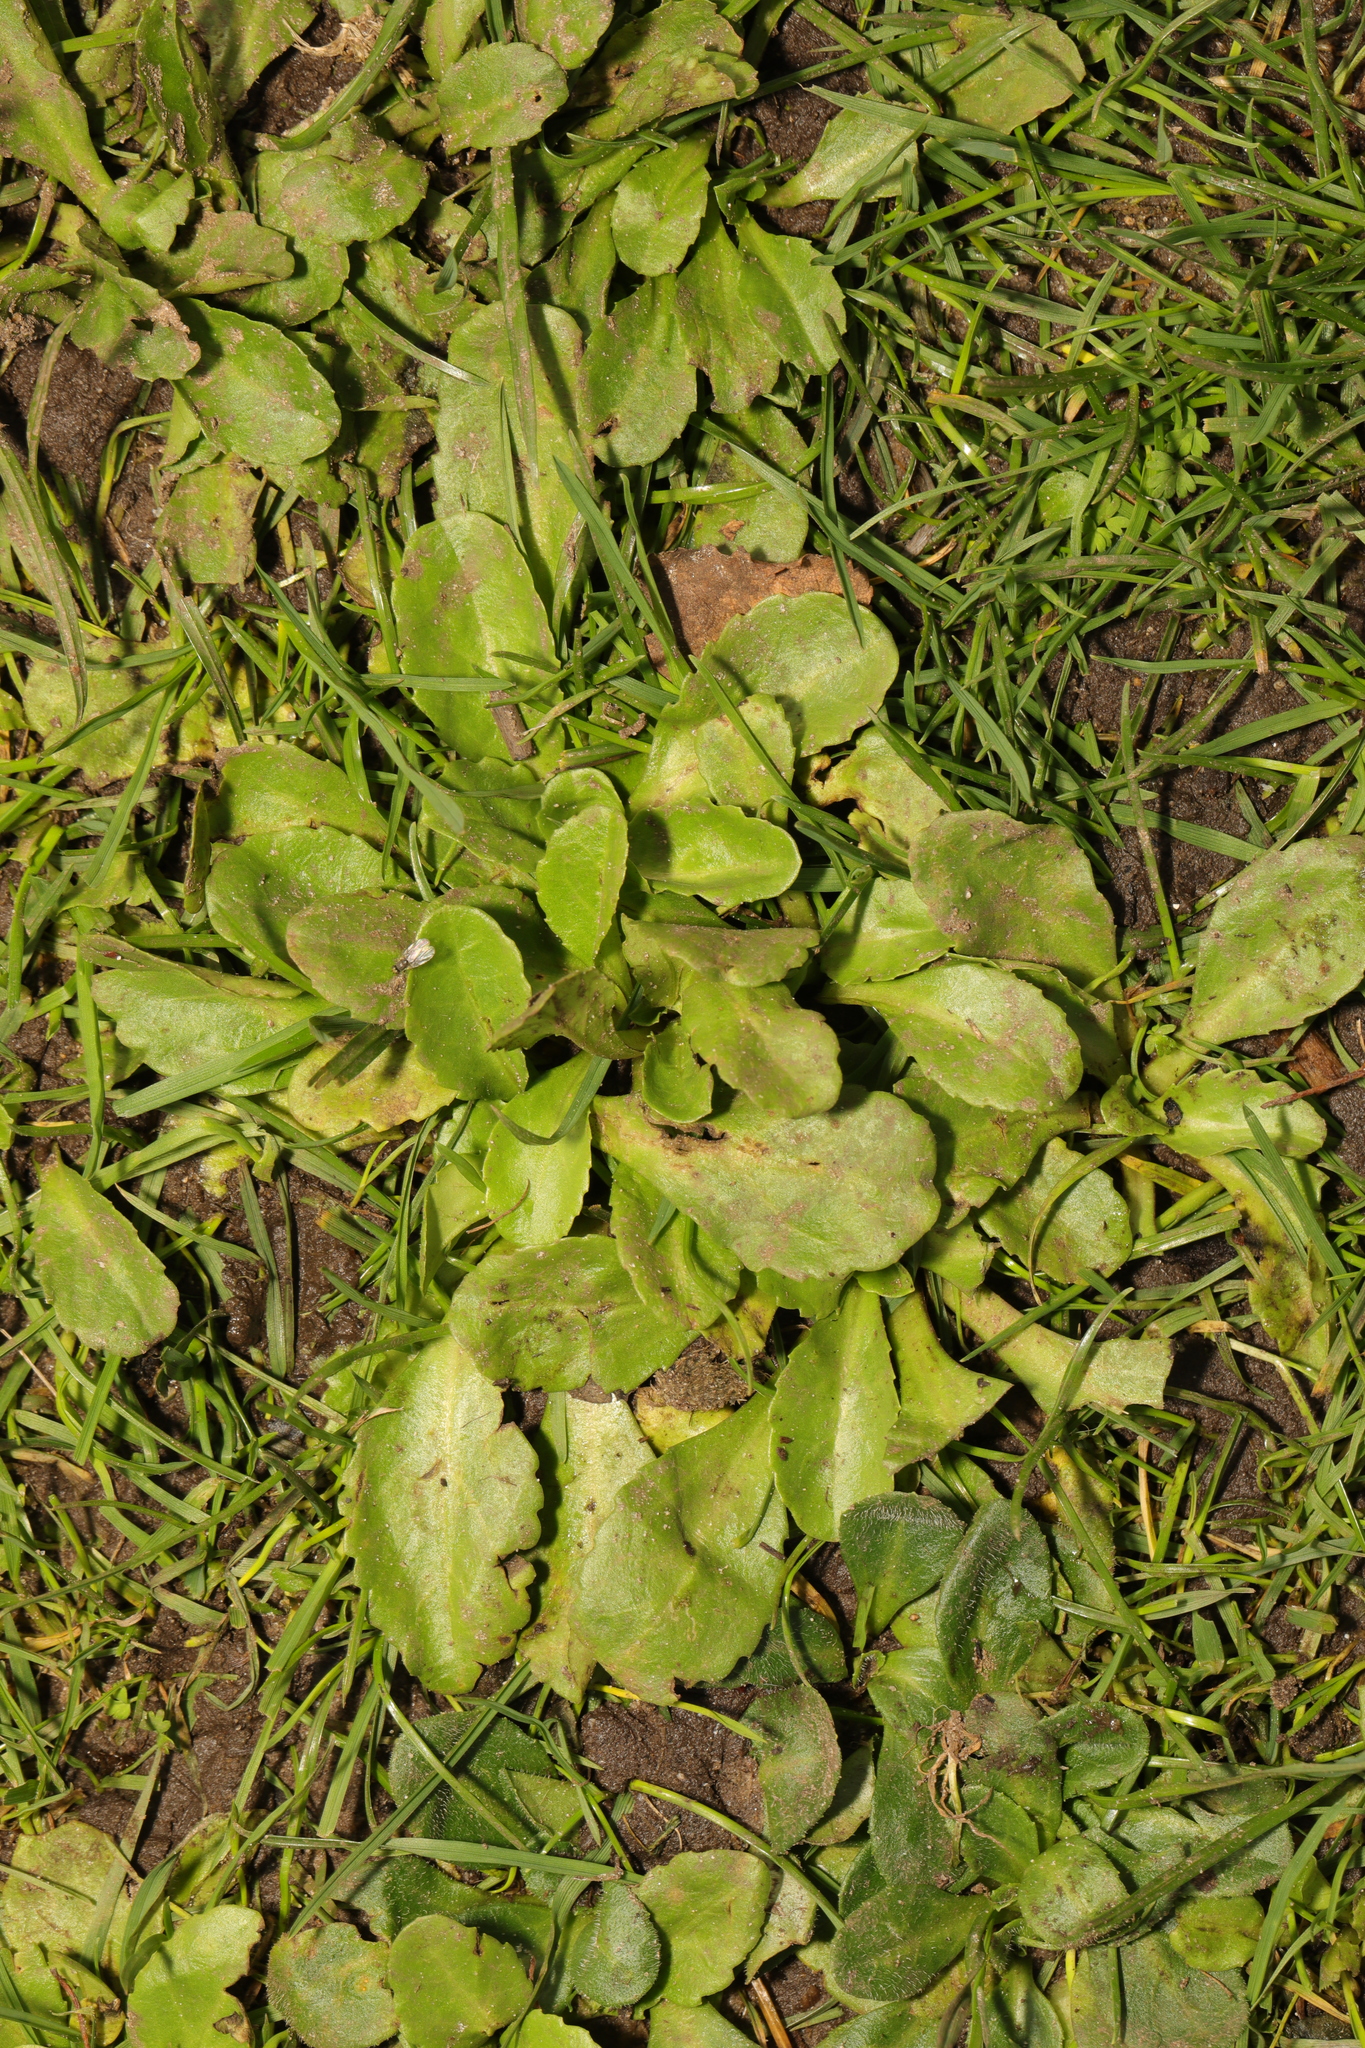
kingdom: Plantae
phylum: Tracheophyta
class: Magnoliopsida
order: Asterales
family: Asteraceae
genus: Bellis
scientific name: Bellis perennis
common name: Lawndaisy
